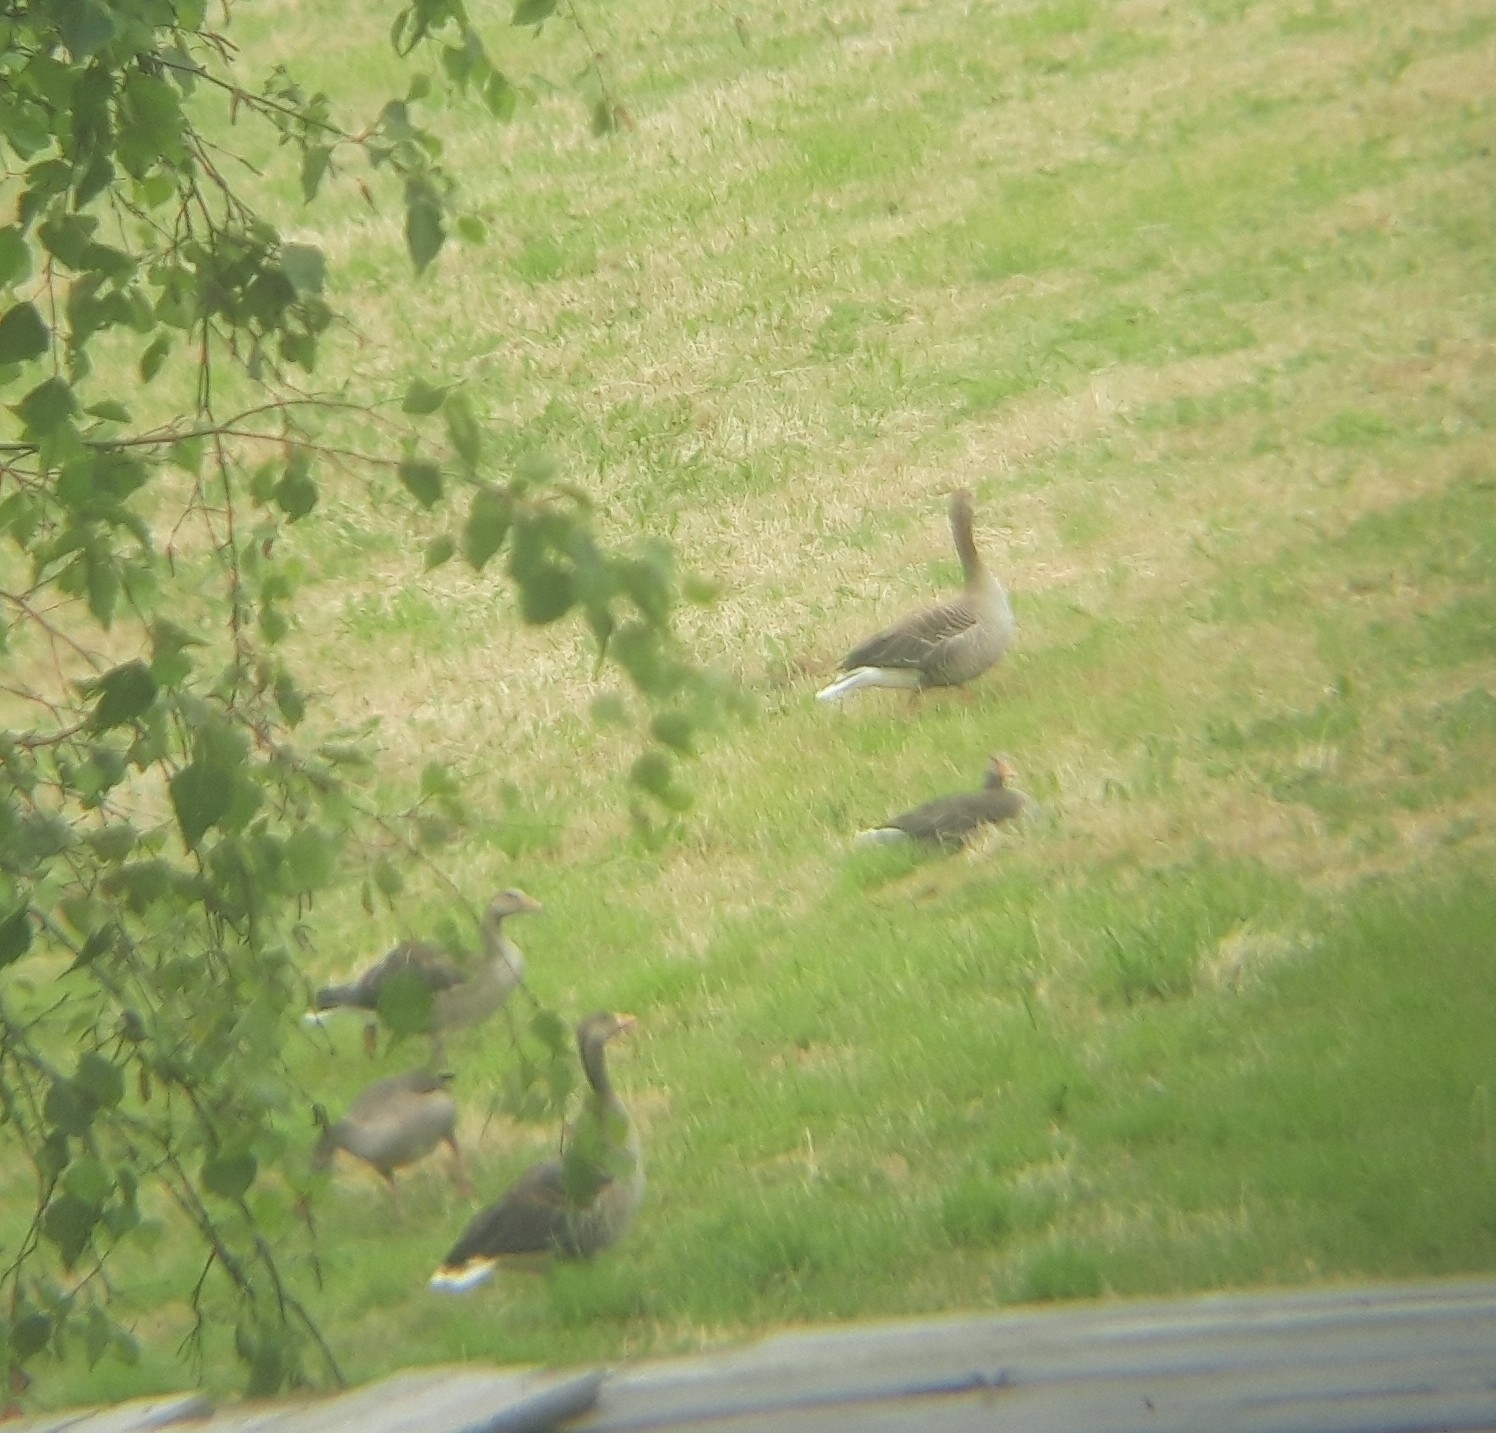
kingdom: Animalia
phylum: Chordata
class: Aves
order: Anseriformes
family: Anatidae
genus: Anser
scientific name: Anser anser
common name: Greylag goose
